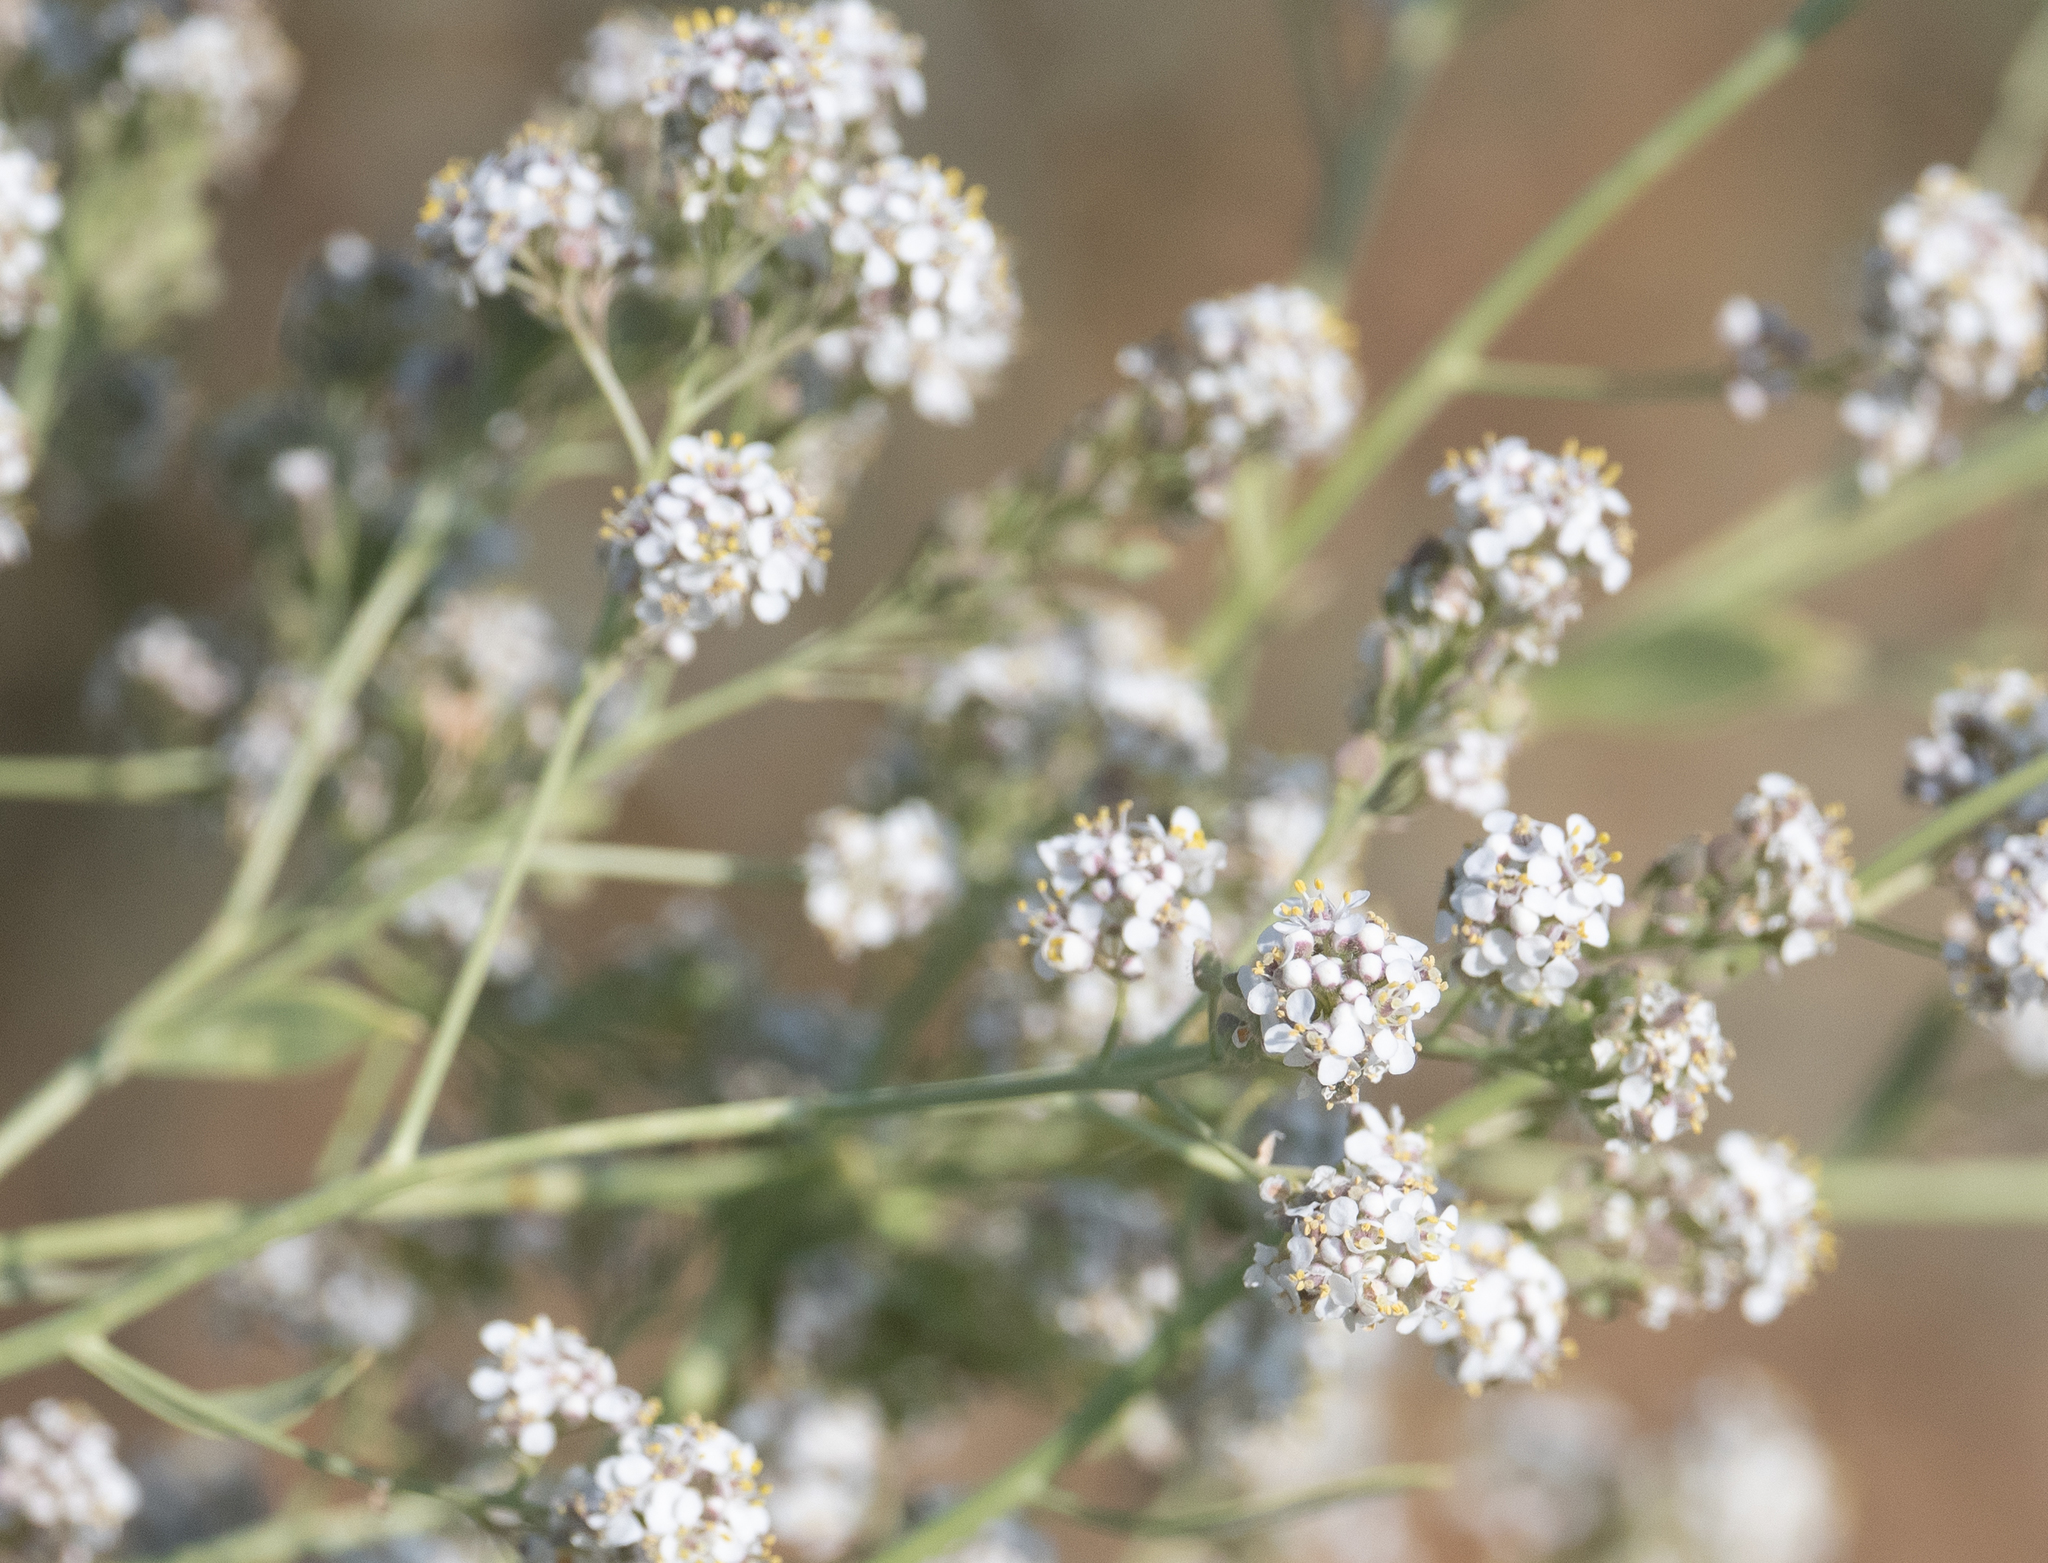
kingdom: Plantae
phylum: Tracheophyta
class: Magnoliopsida
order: Brassicales
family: Brassicaceae
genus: Lepidium
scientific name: Lepidium latifolium
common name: Dittander
